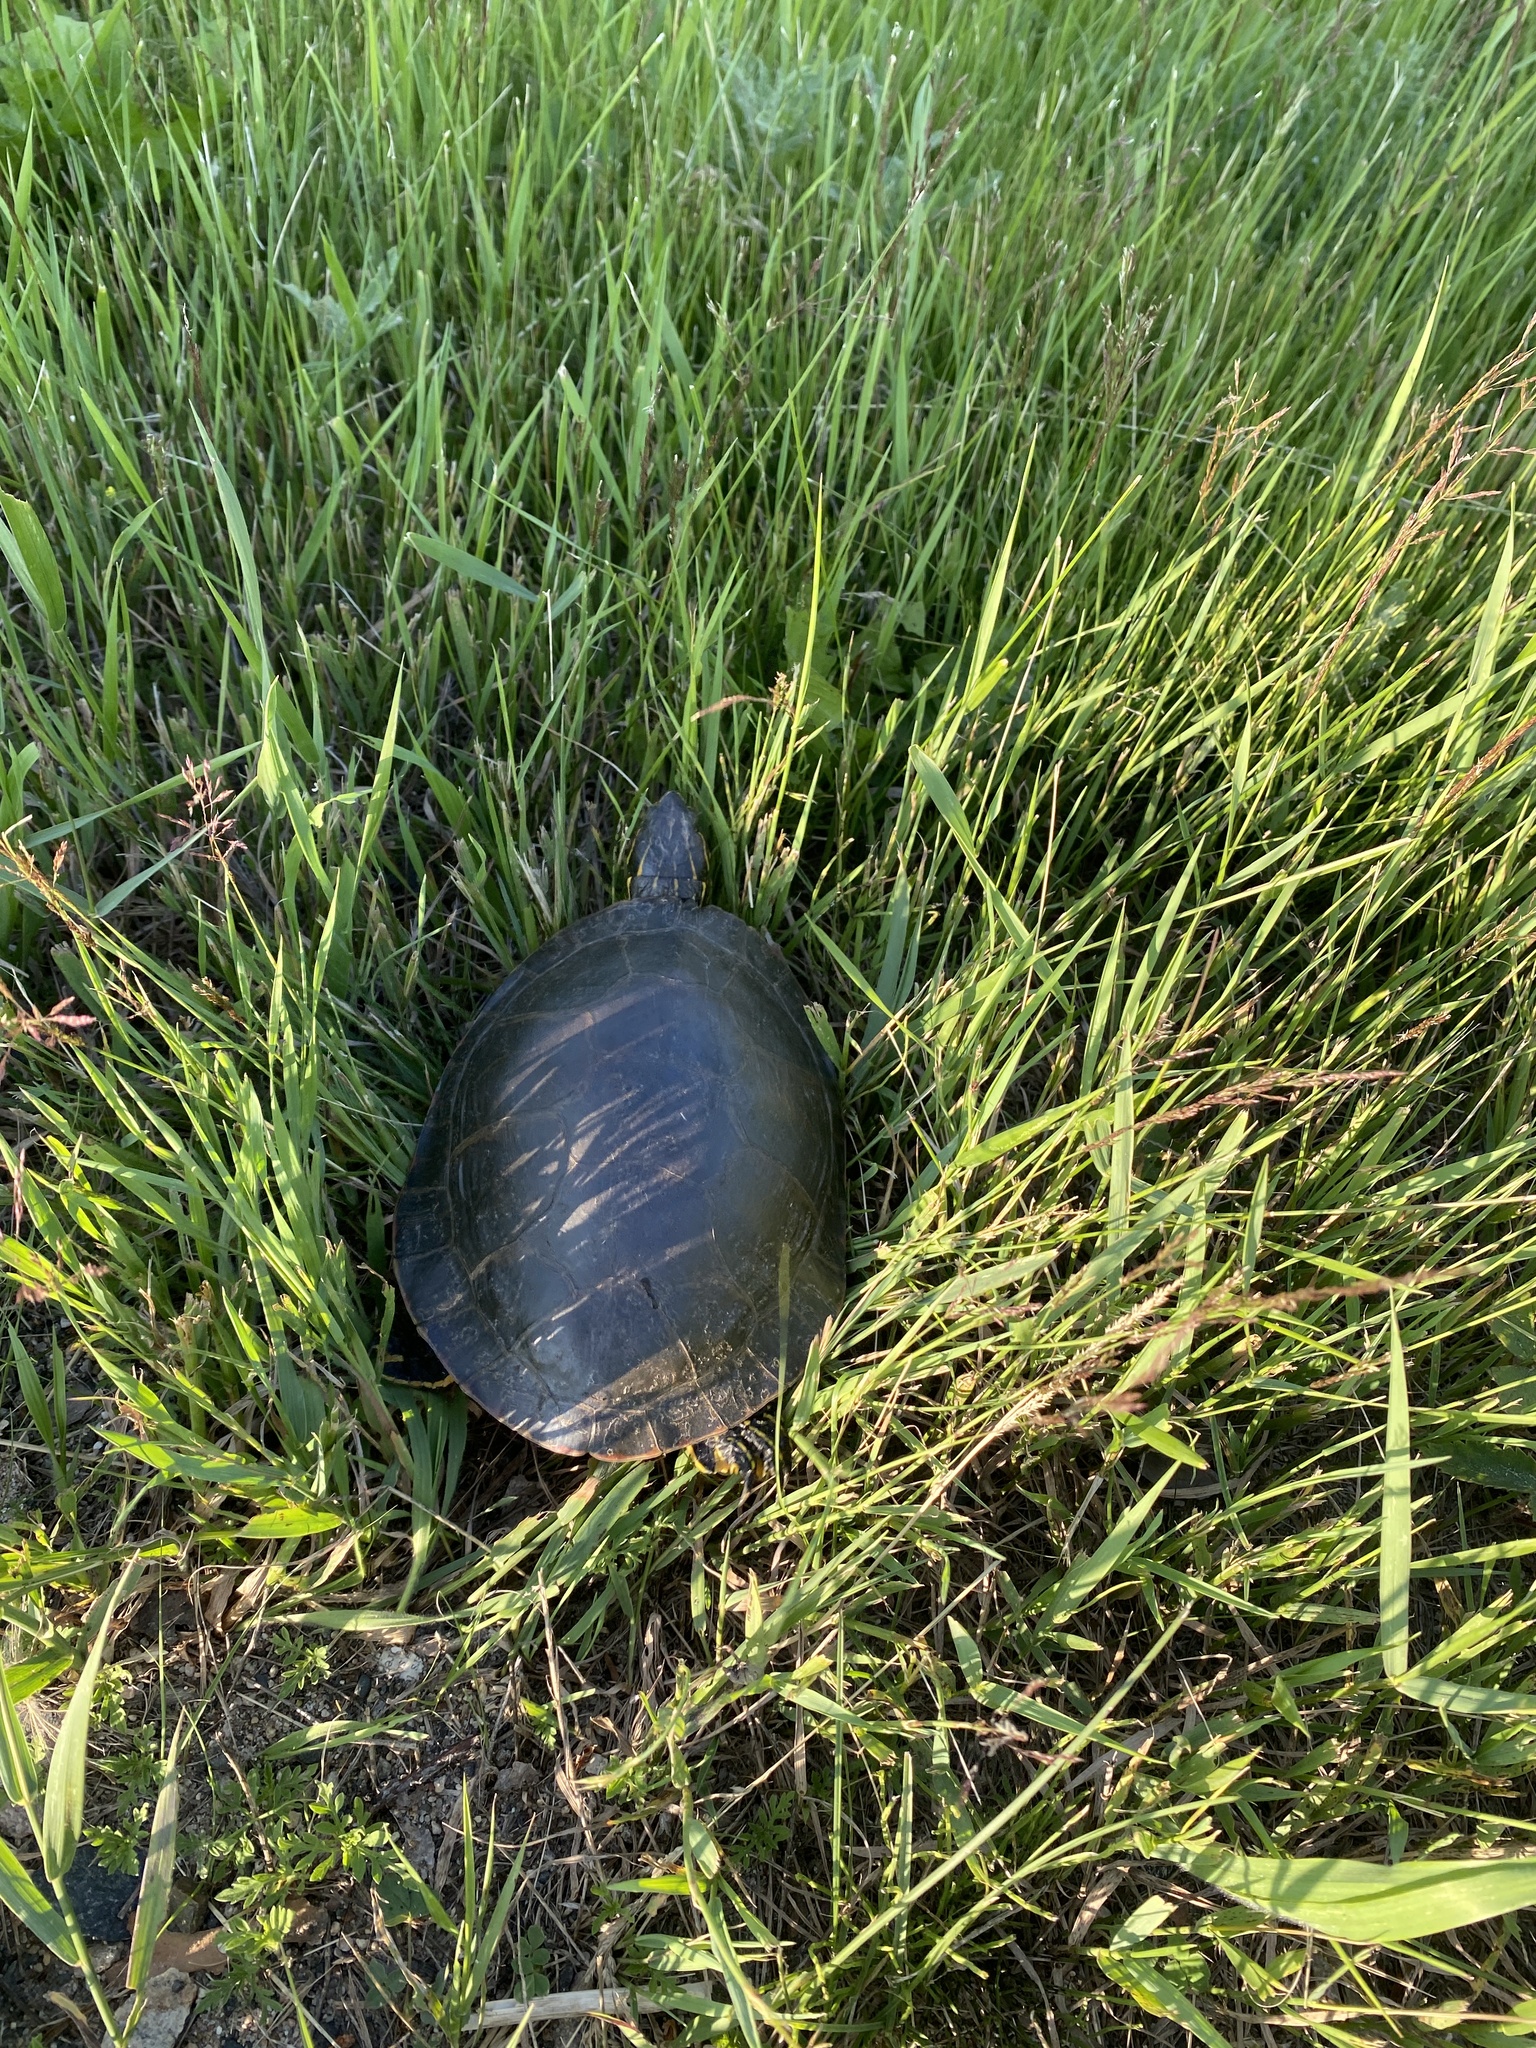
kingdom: Animalia
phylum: Chordata
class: Testudines
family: Emydidae
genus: Chrysemys
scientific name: Chrysemys picta
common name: Painted turtle
